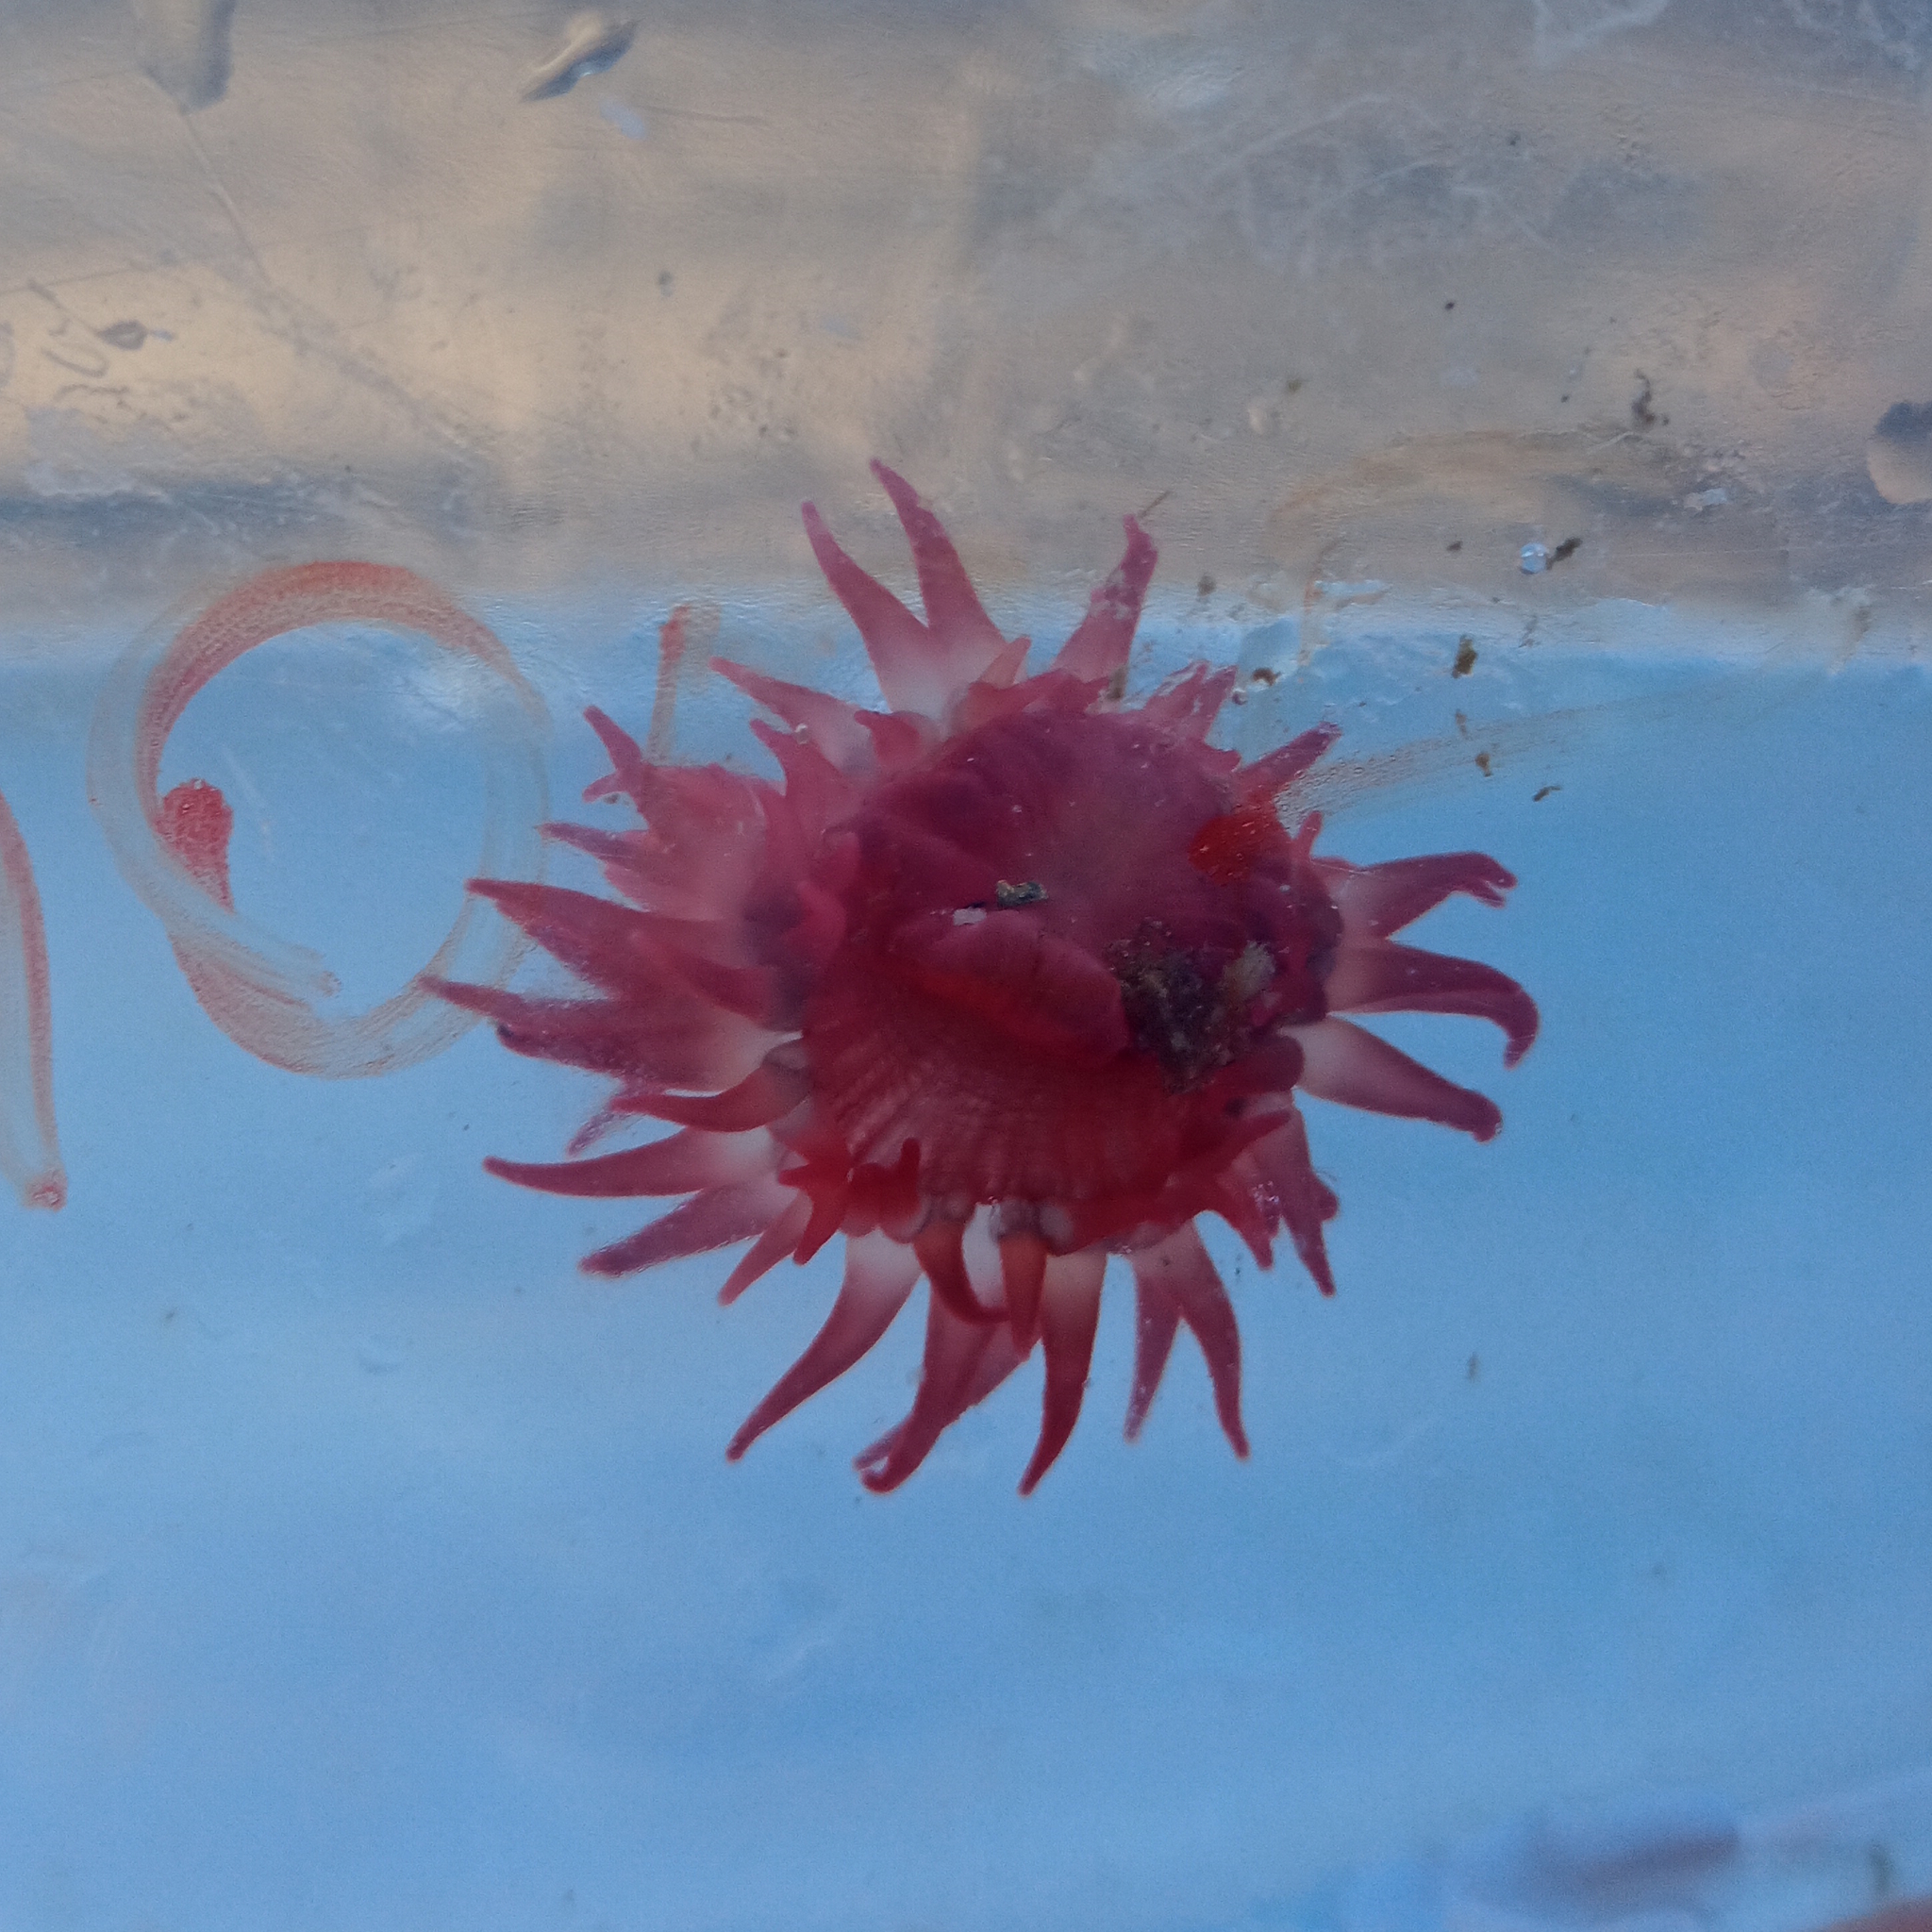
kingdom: Animalia
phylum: Cnidaria
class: Anthozoa
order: Actiniaria
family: Actiniidae
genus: Anemonia
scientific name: Anemonia sargassensis
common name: Sargassum anemone
